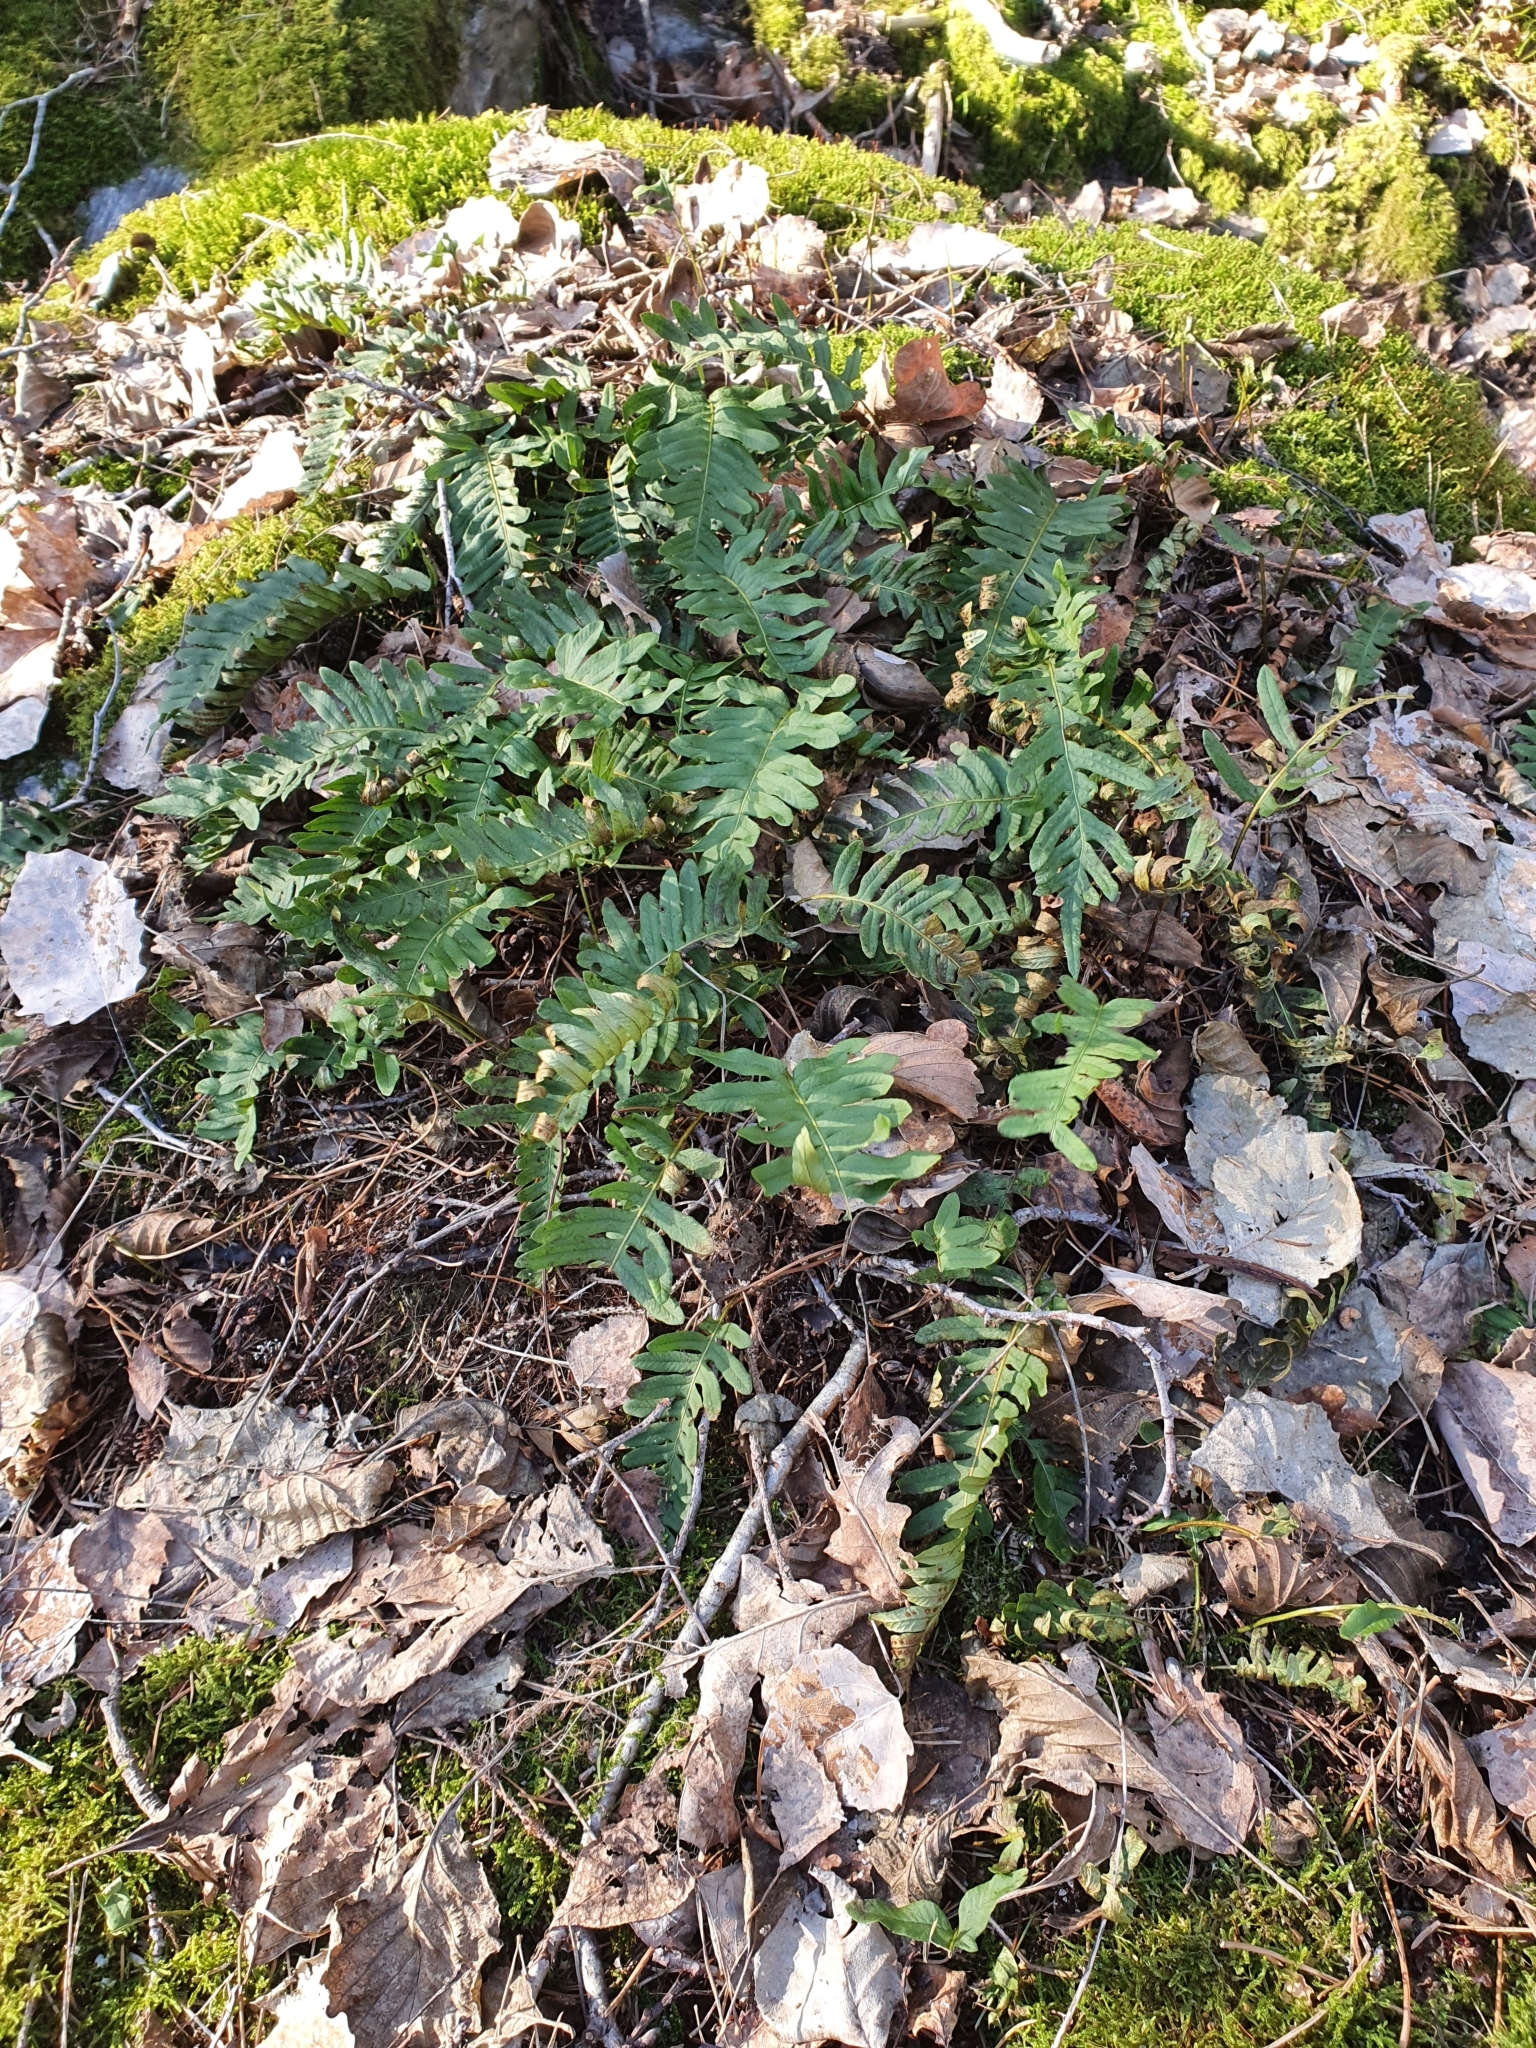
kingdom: Plantae
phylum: Tracheophyta
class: Polypodiopsida
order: Polypodiales
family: Polypodiaceae
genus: Polypodium
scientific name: Polypodium vulgare
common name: Common polypody
